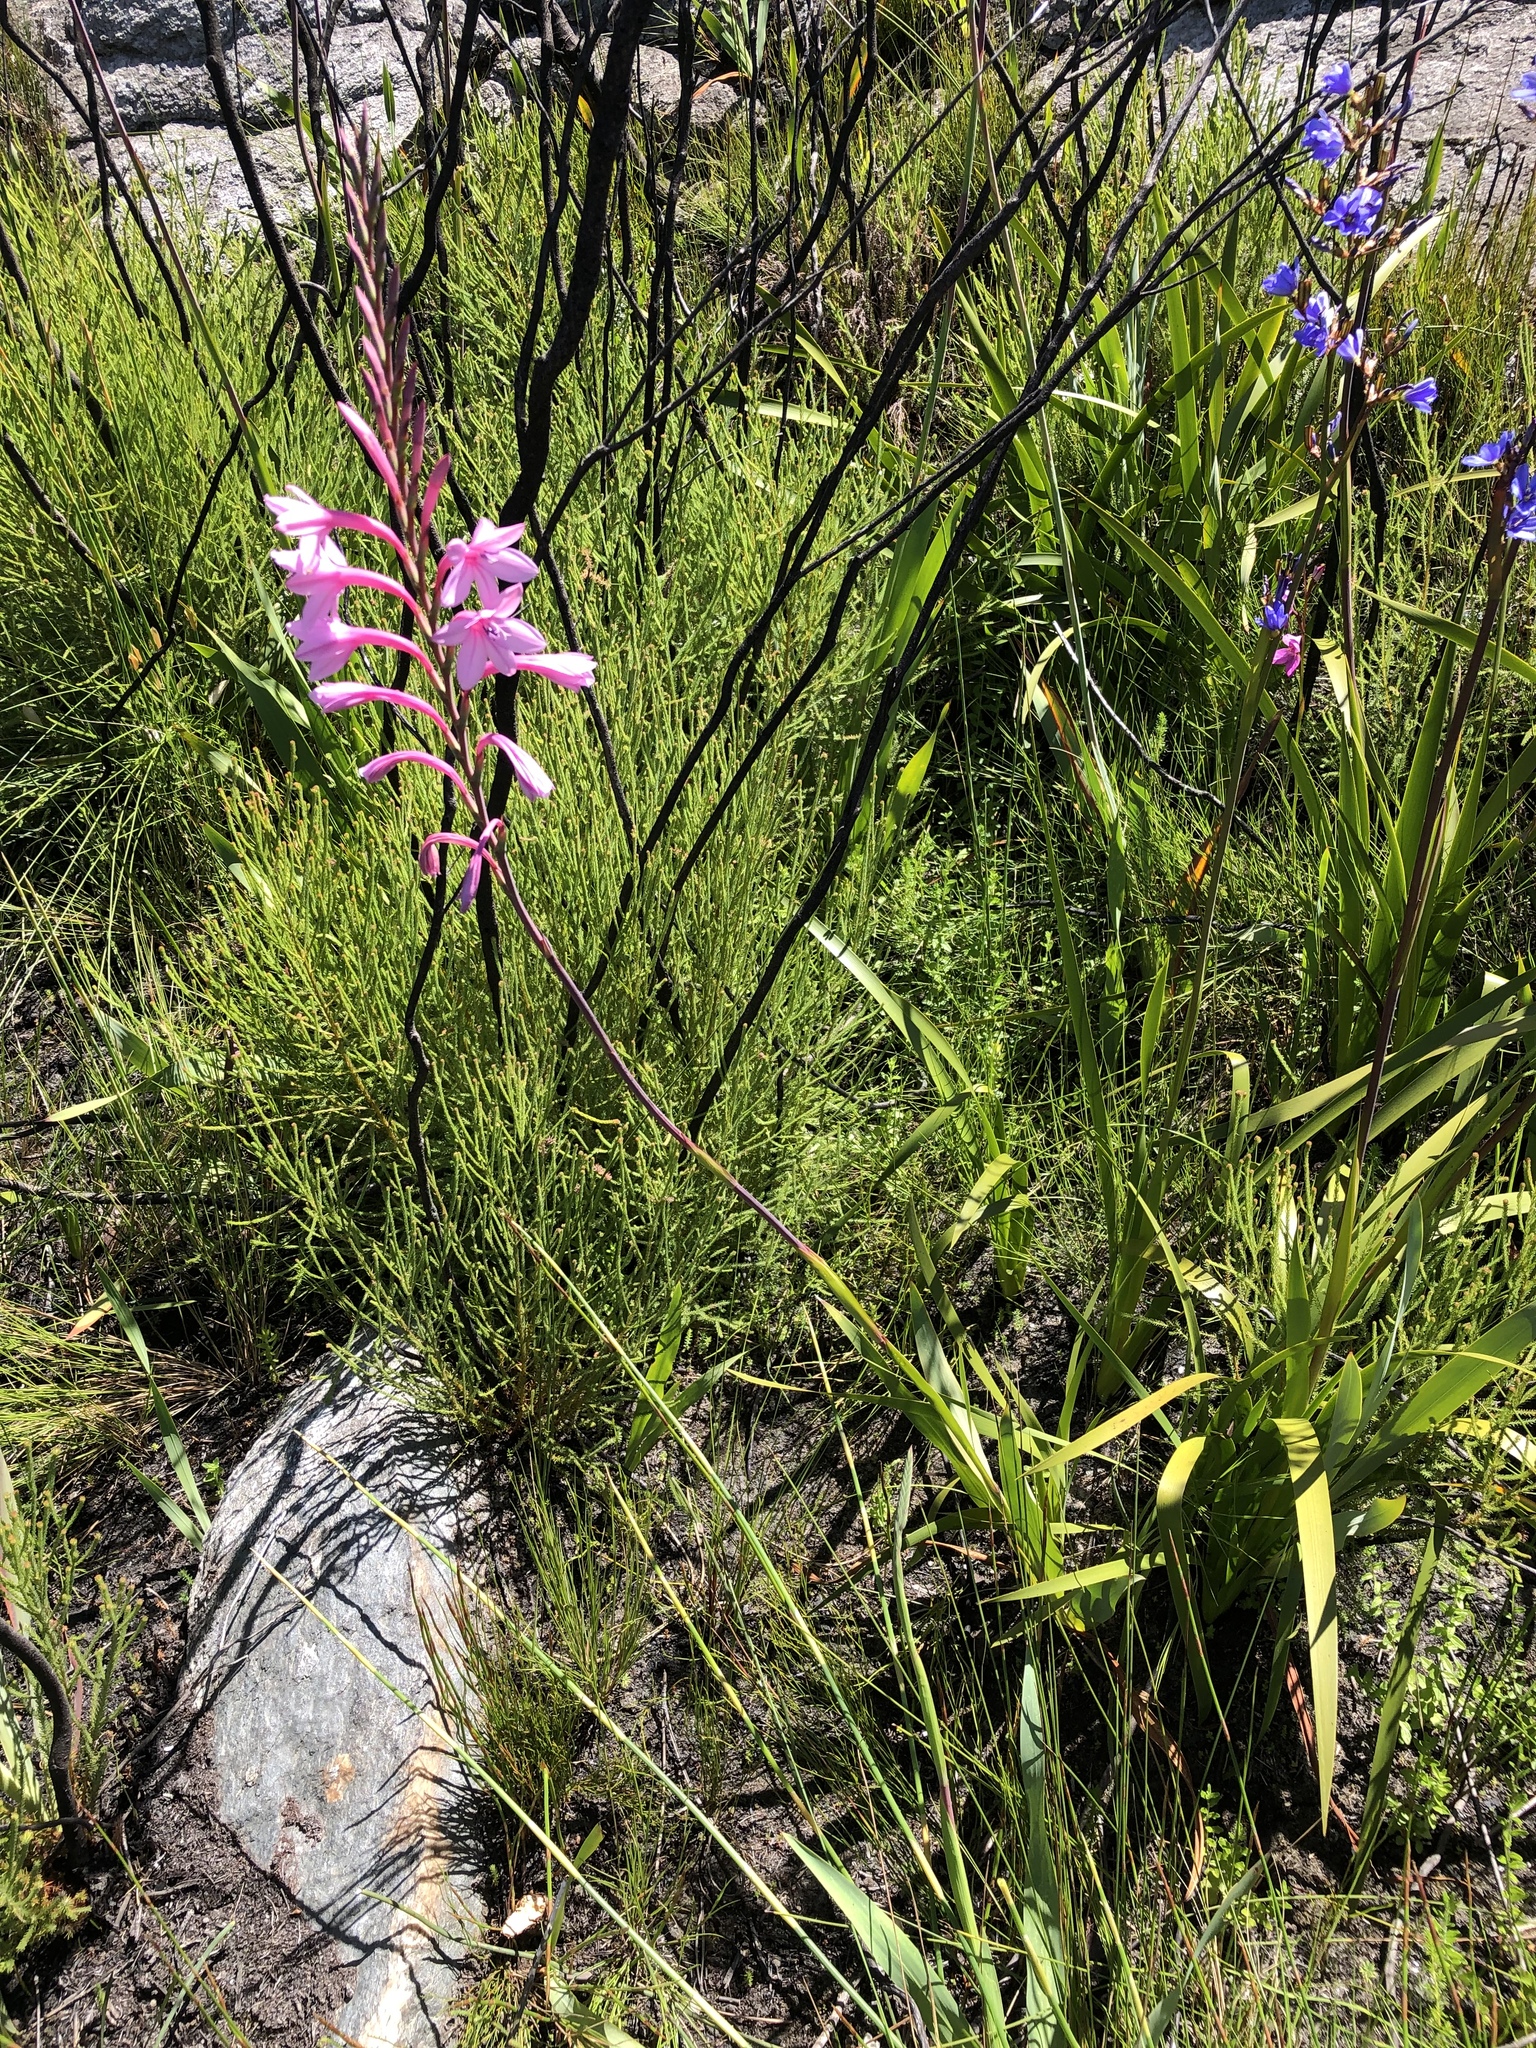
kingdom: Plantae
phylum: Tracheophyta
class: Liliopsida
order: Asparagales
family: Iridaceae
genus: Watsonia
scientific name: Watsonia knysnana
